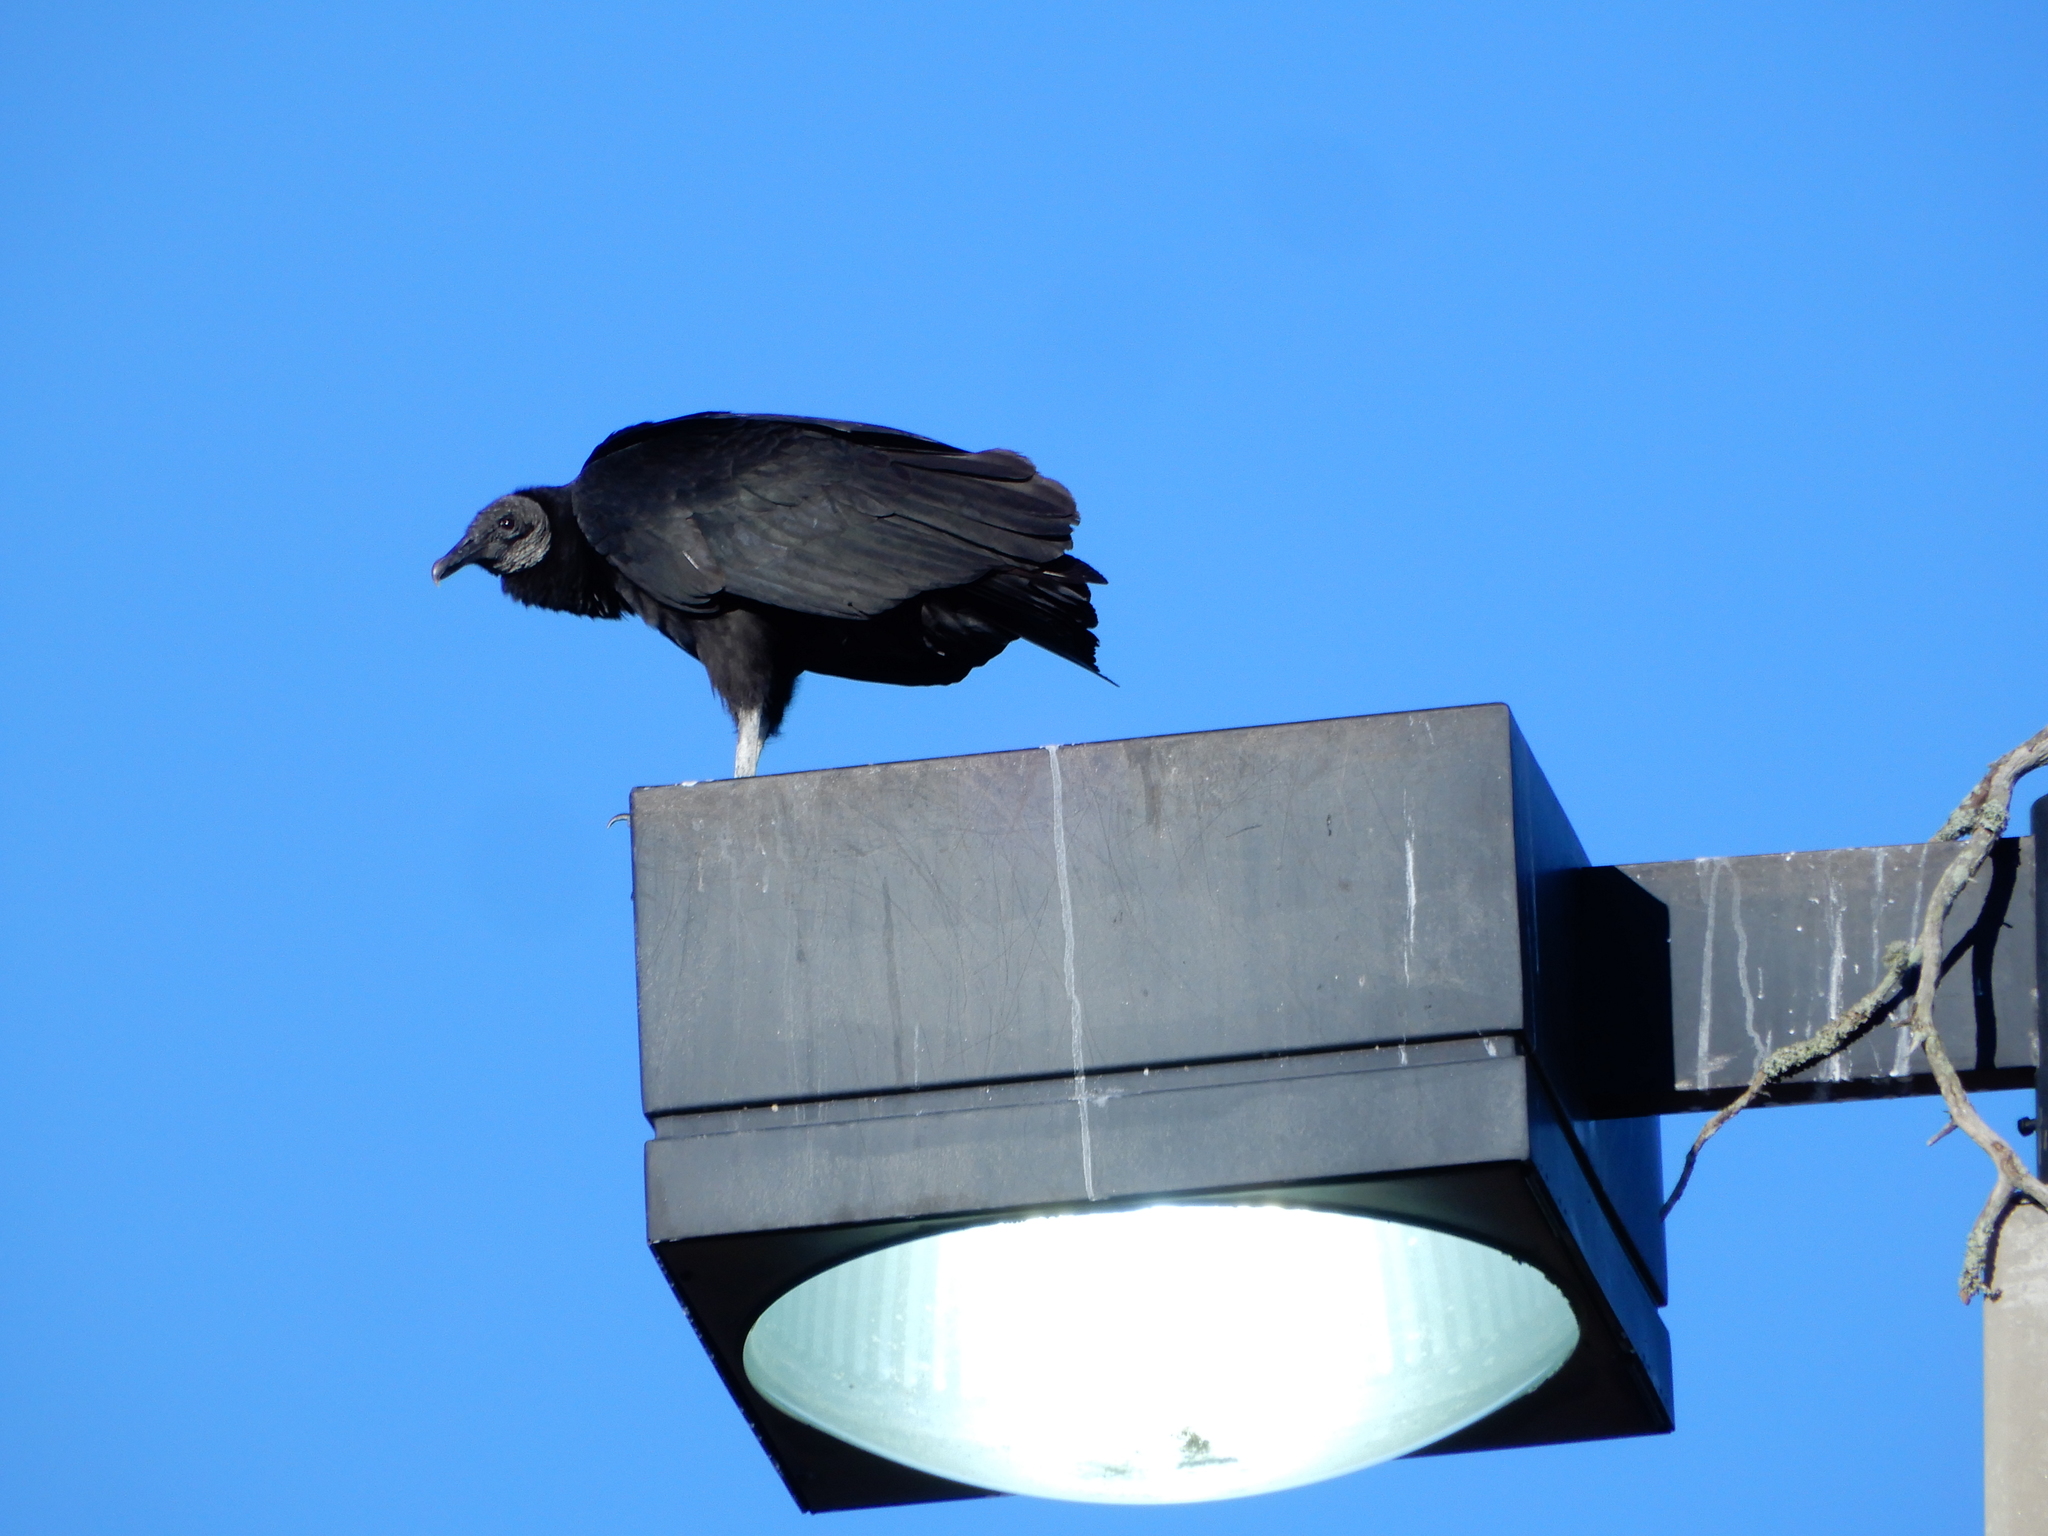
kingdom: Animalia
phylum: Chordata
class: Aves
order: Accipitriformes
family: Cathartidae
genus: Coragyps
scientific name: Coragyps atratus
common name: Black vulture
